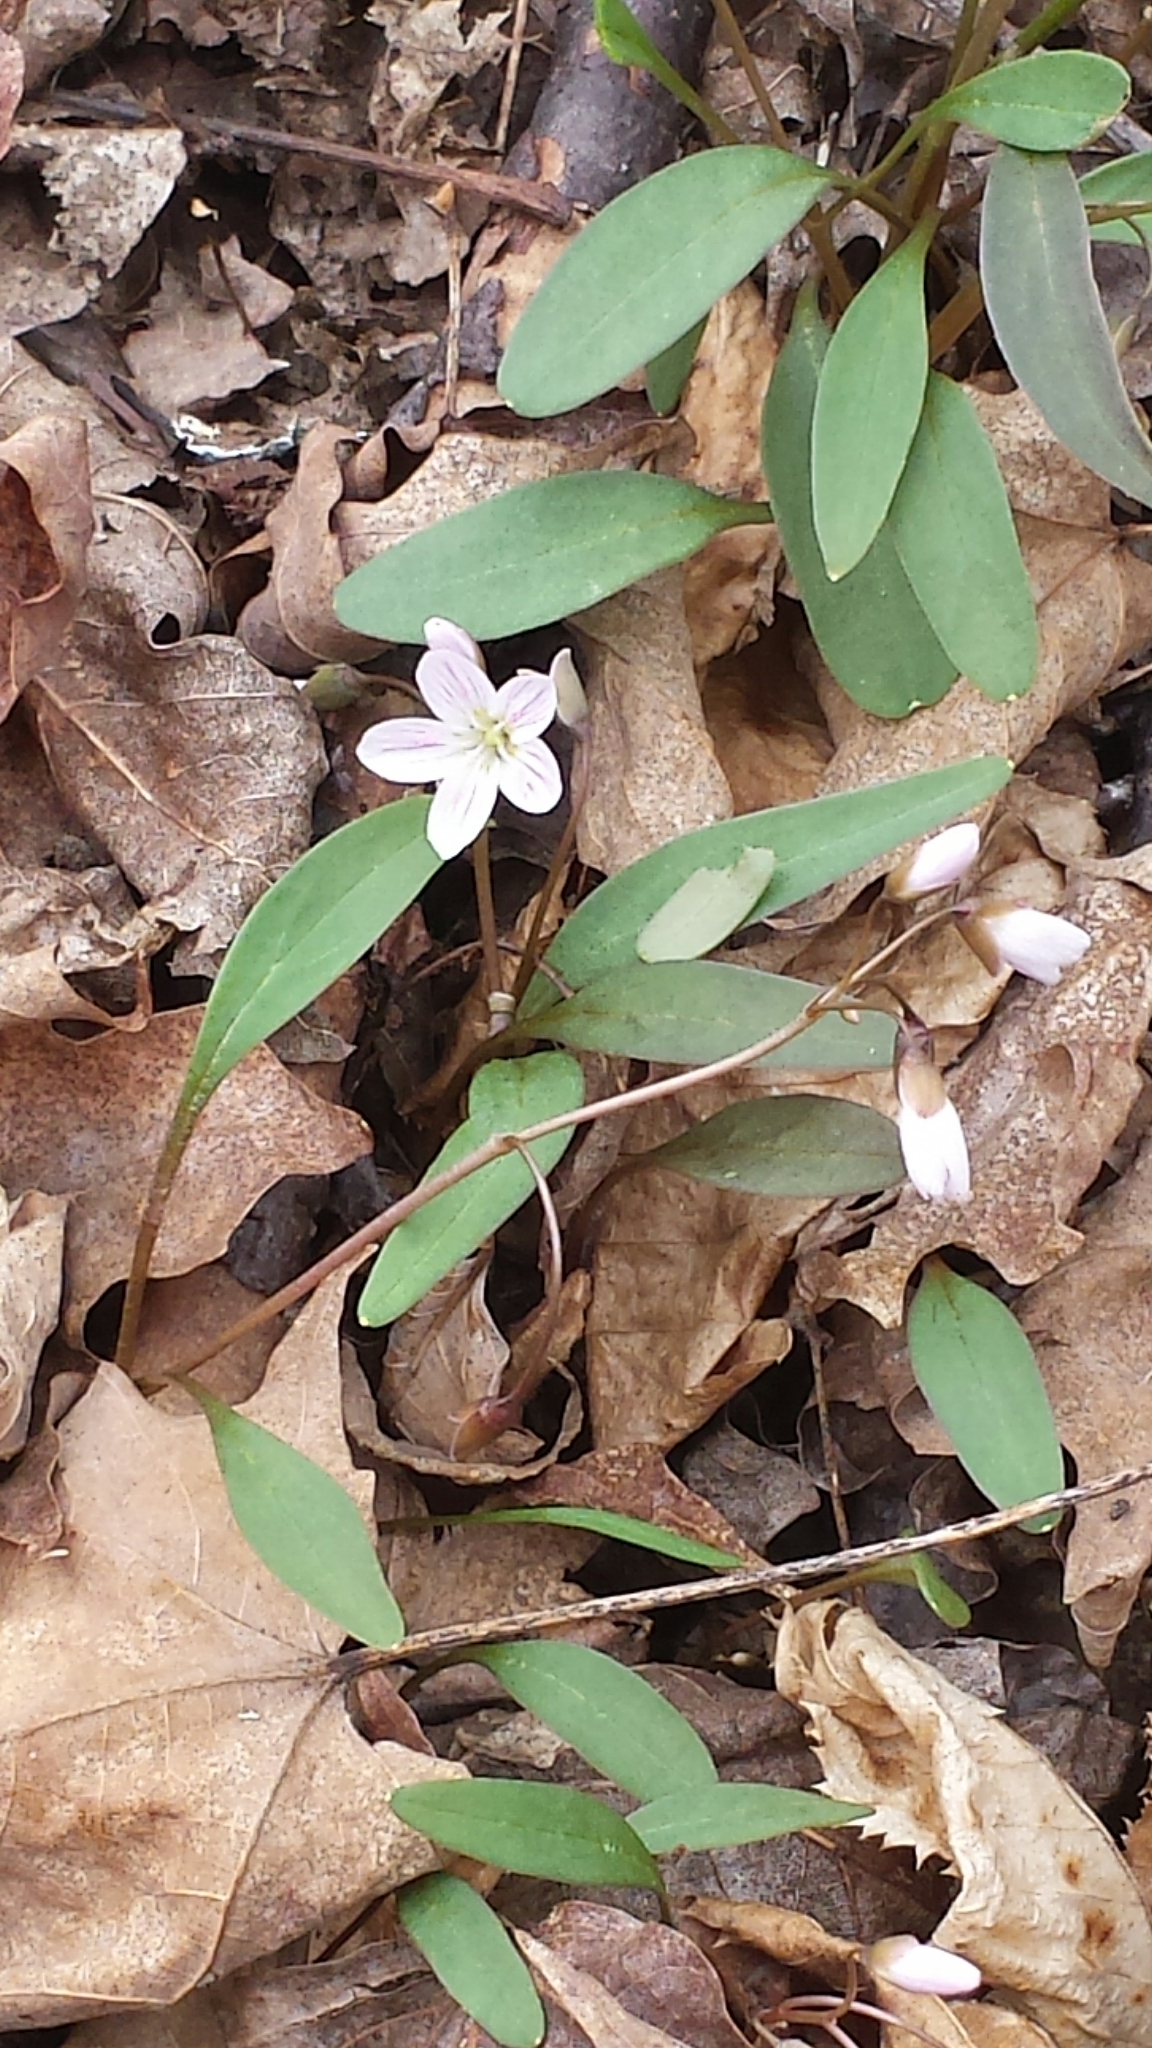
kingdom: Plantae
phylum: Tracheophyta
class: Magnoliopsida
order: Caryophyllales
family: Montiaceae
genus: Claytonia
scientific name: Claytonia caroliniana
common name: Carolina spring beauty
